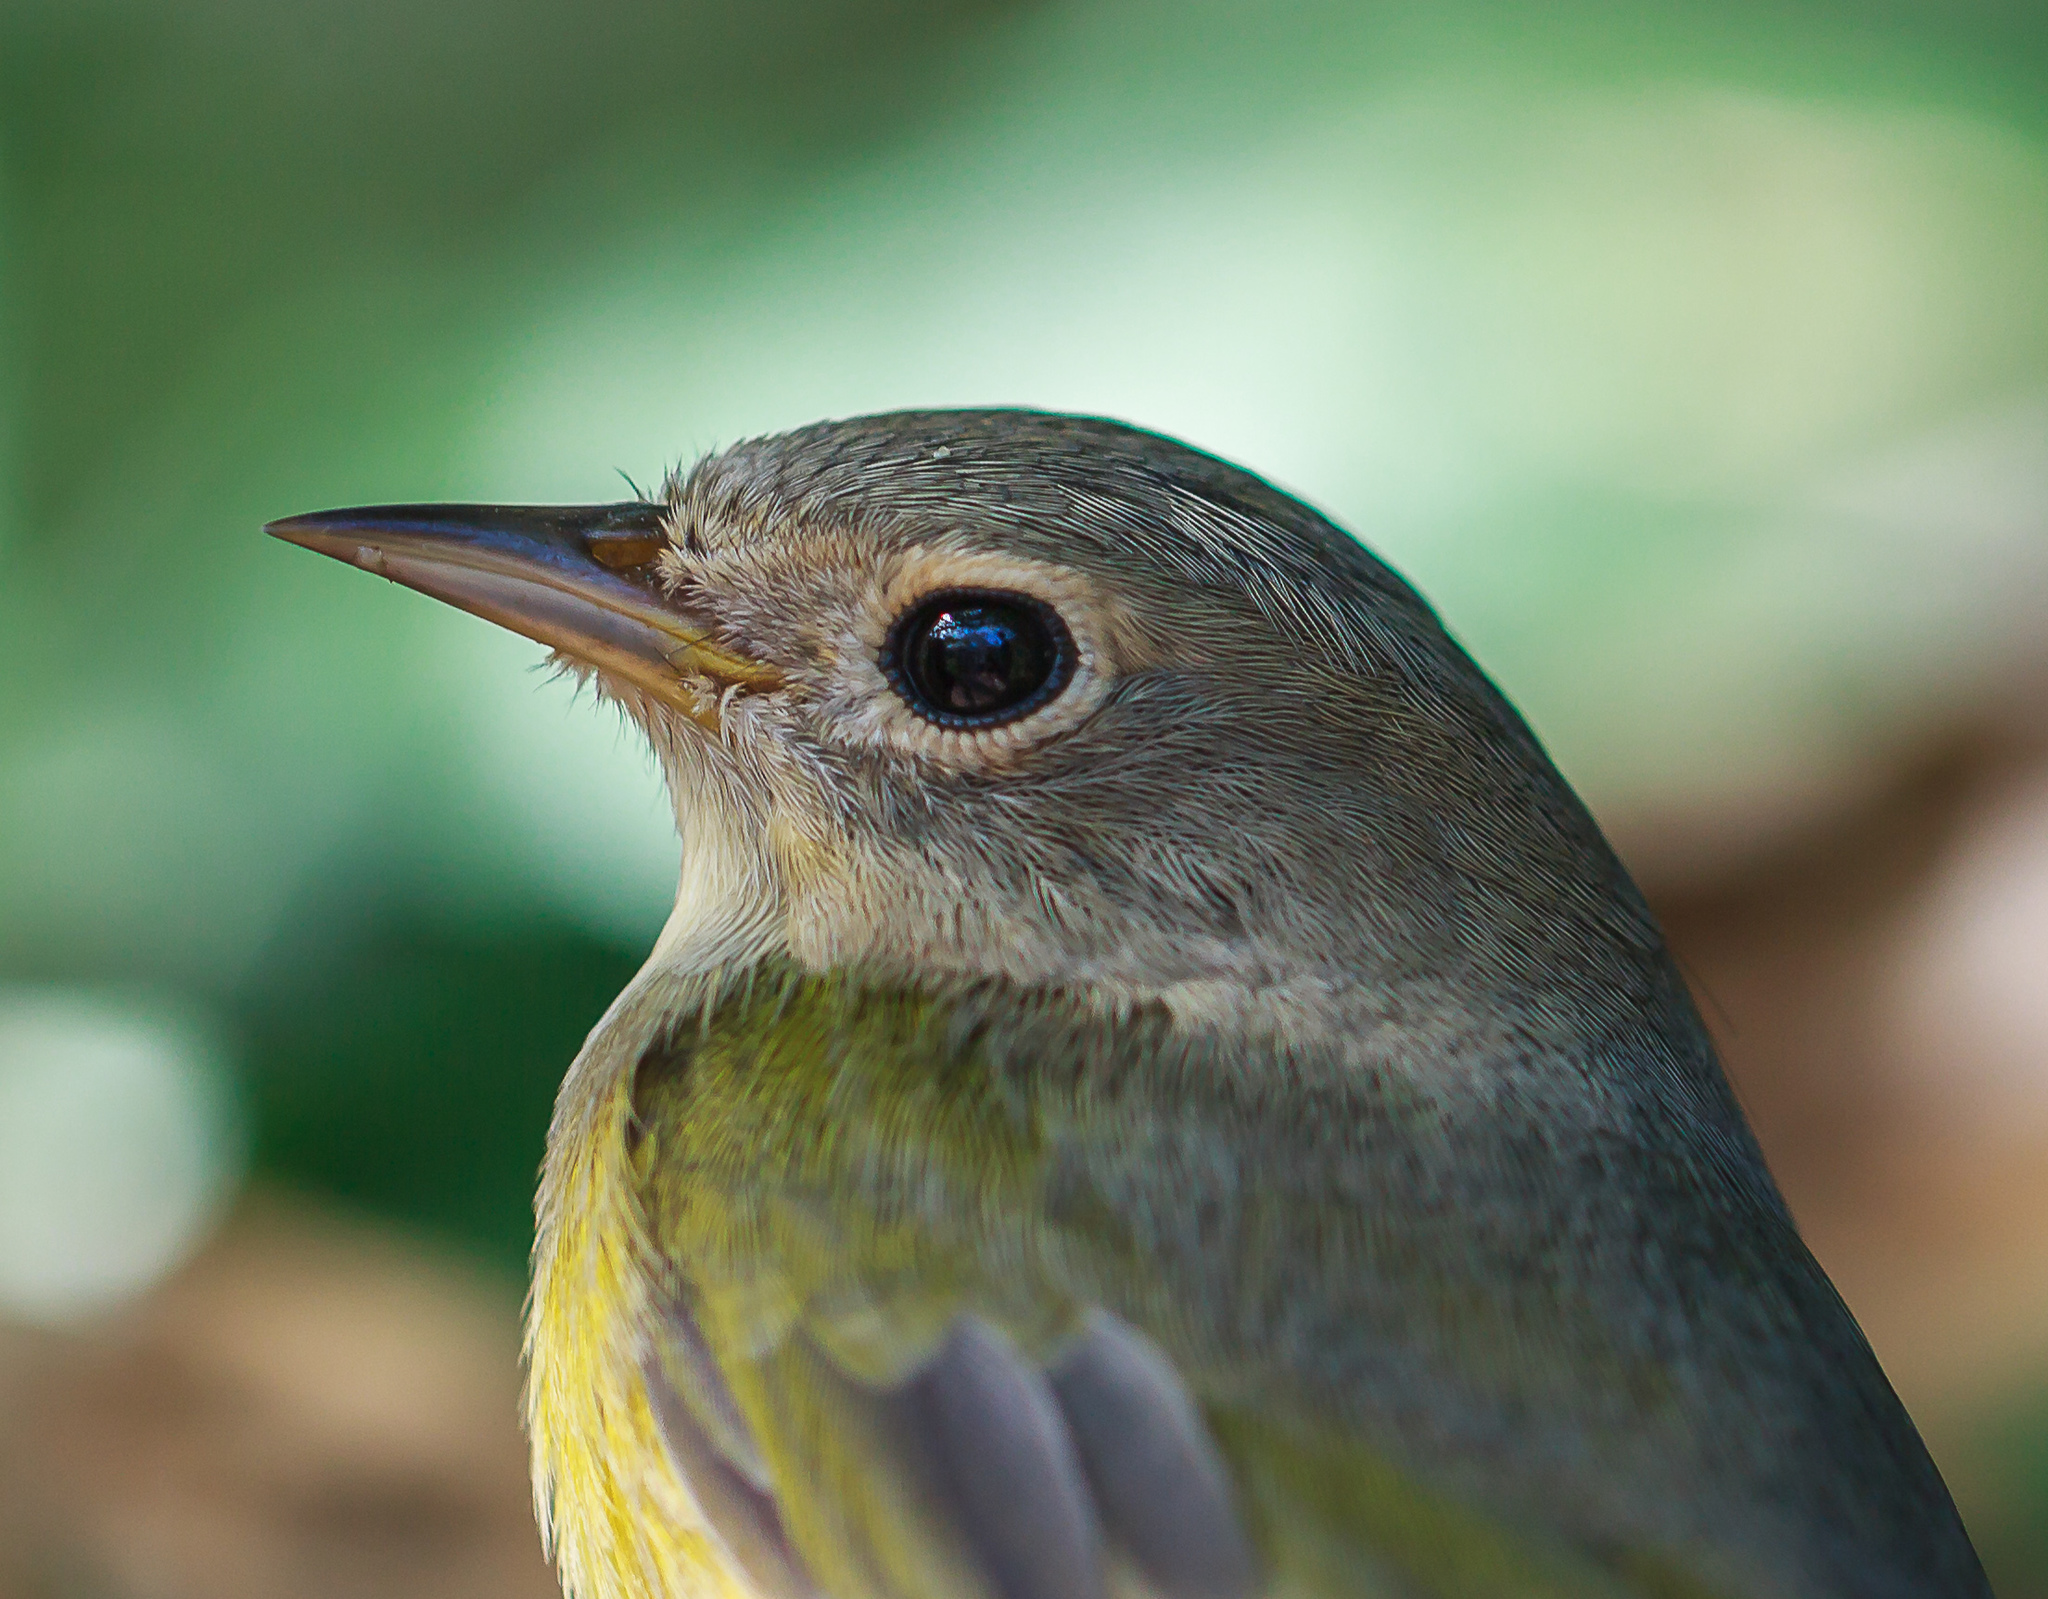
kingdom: Animalia
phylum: Chordata
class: Aves
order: Passeriformes
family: Parulidae
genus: Leiothlypis
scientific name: Leiothlypis ruficapilla
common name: Nashville warbler
